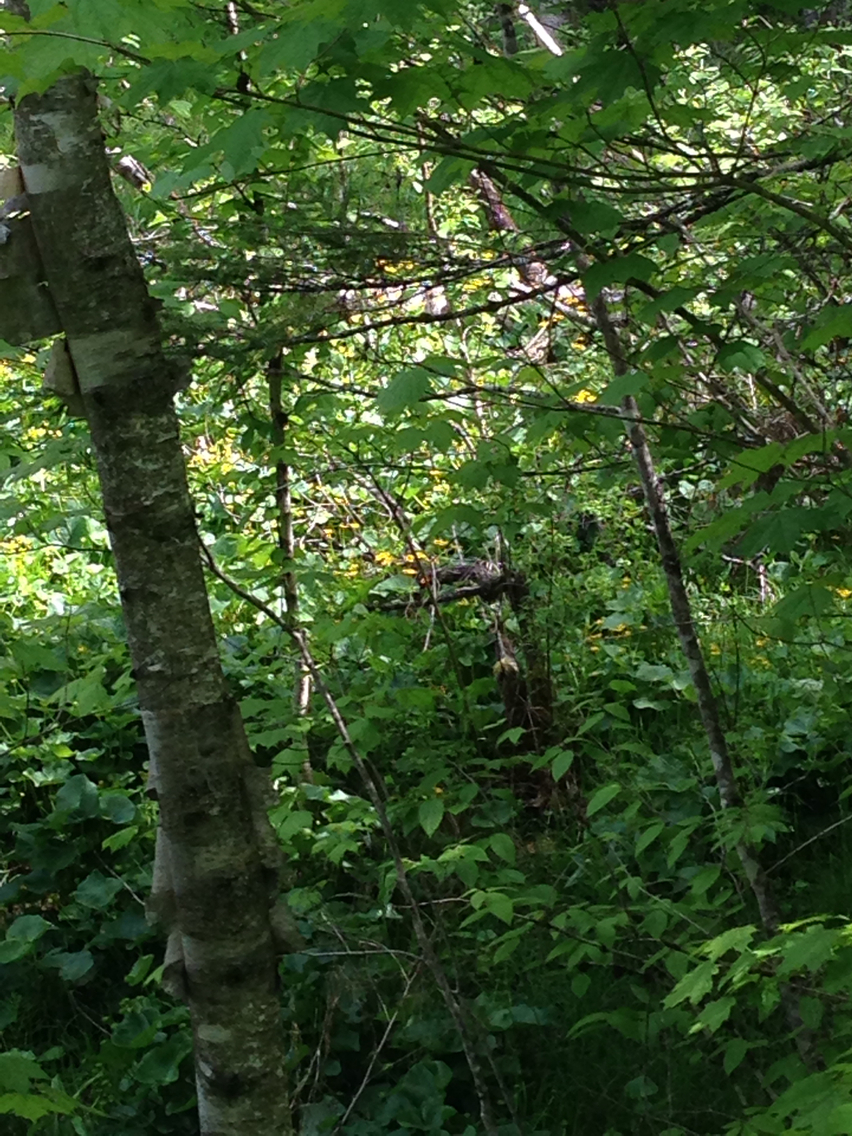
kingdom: Plantae
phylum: Tracheophyta
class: Magnoliopsida
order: Ranunculales
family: Ranunculaceae
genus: Caltha
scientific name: Caltha palustris
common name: Marsh marigold
